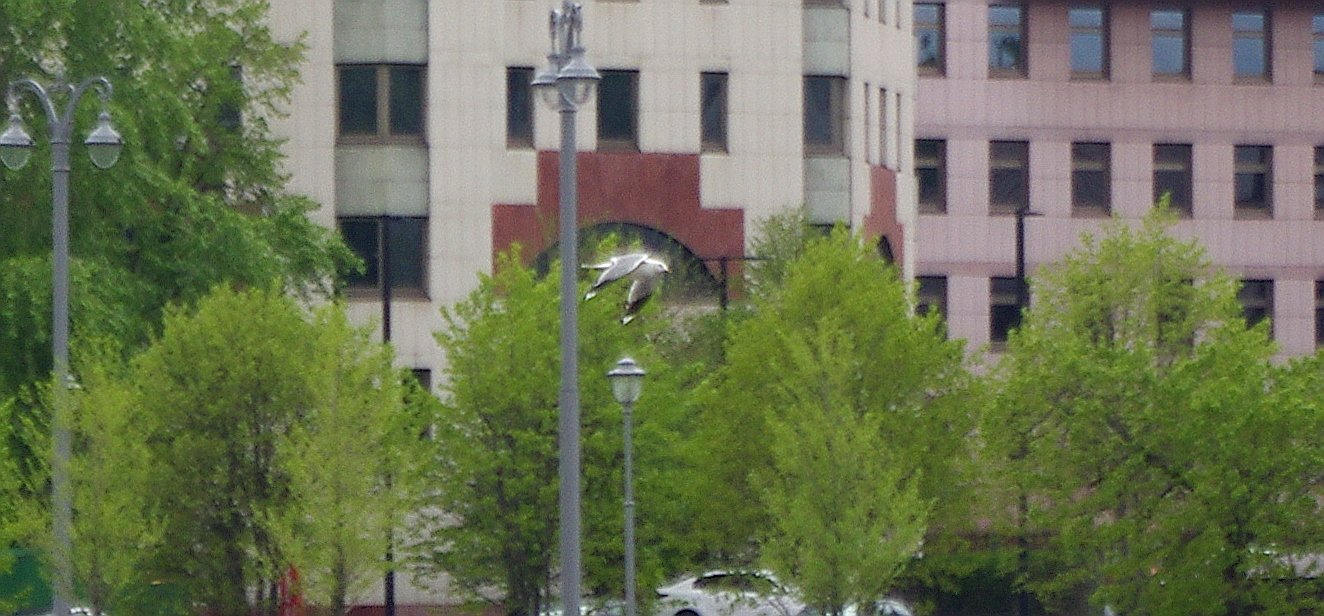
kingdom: Animalia
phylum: Chordata
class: Aves
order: Charadriiformes
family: Laridae
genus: Larus
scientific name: Larus canus
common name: Mew gull
